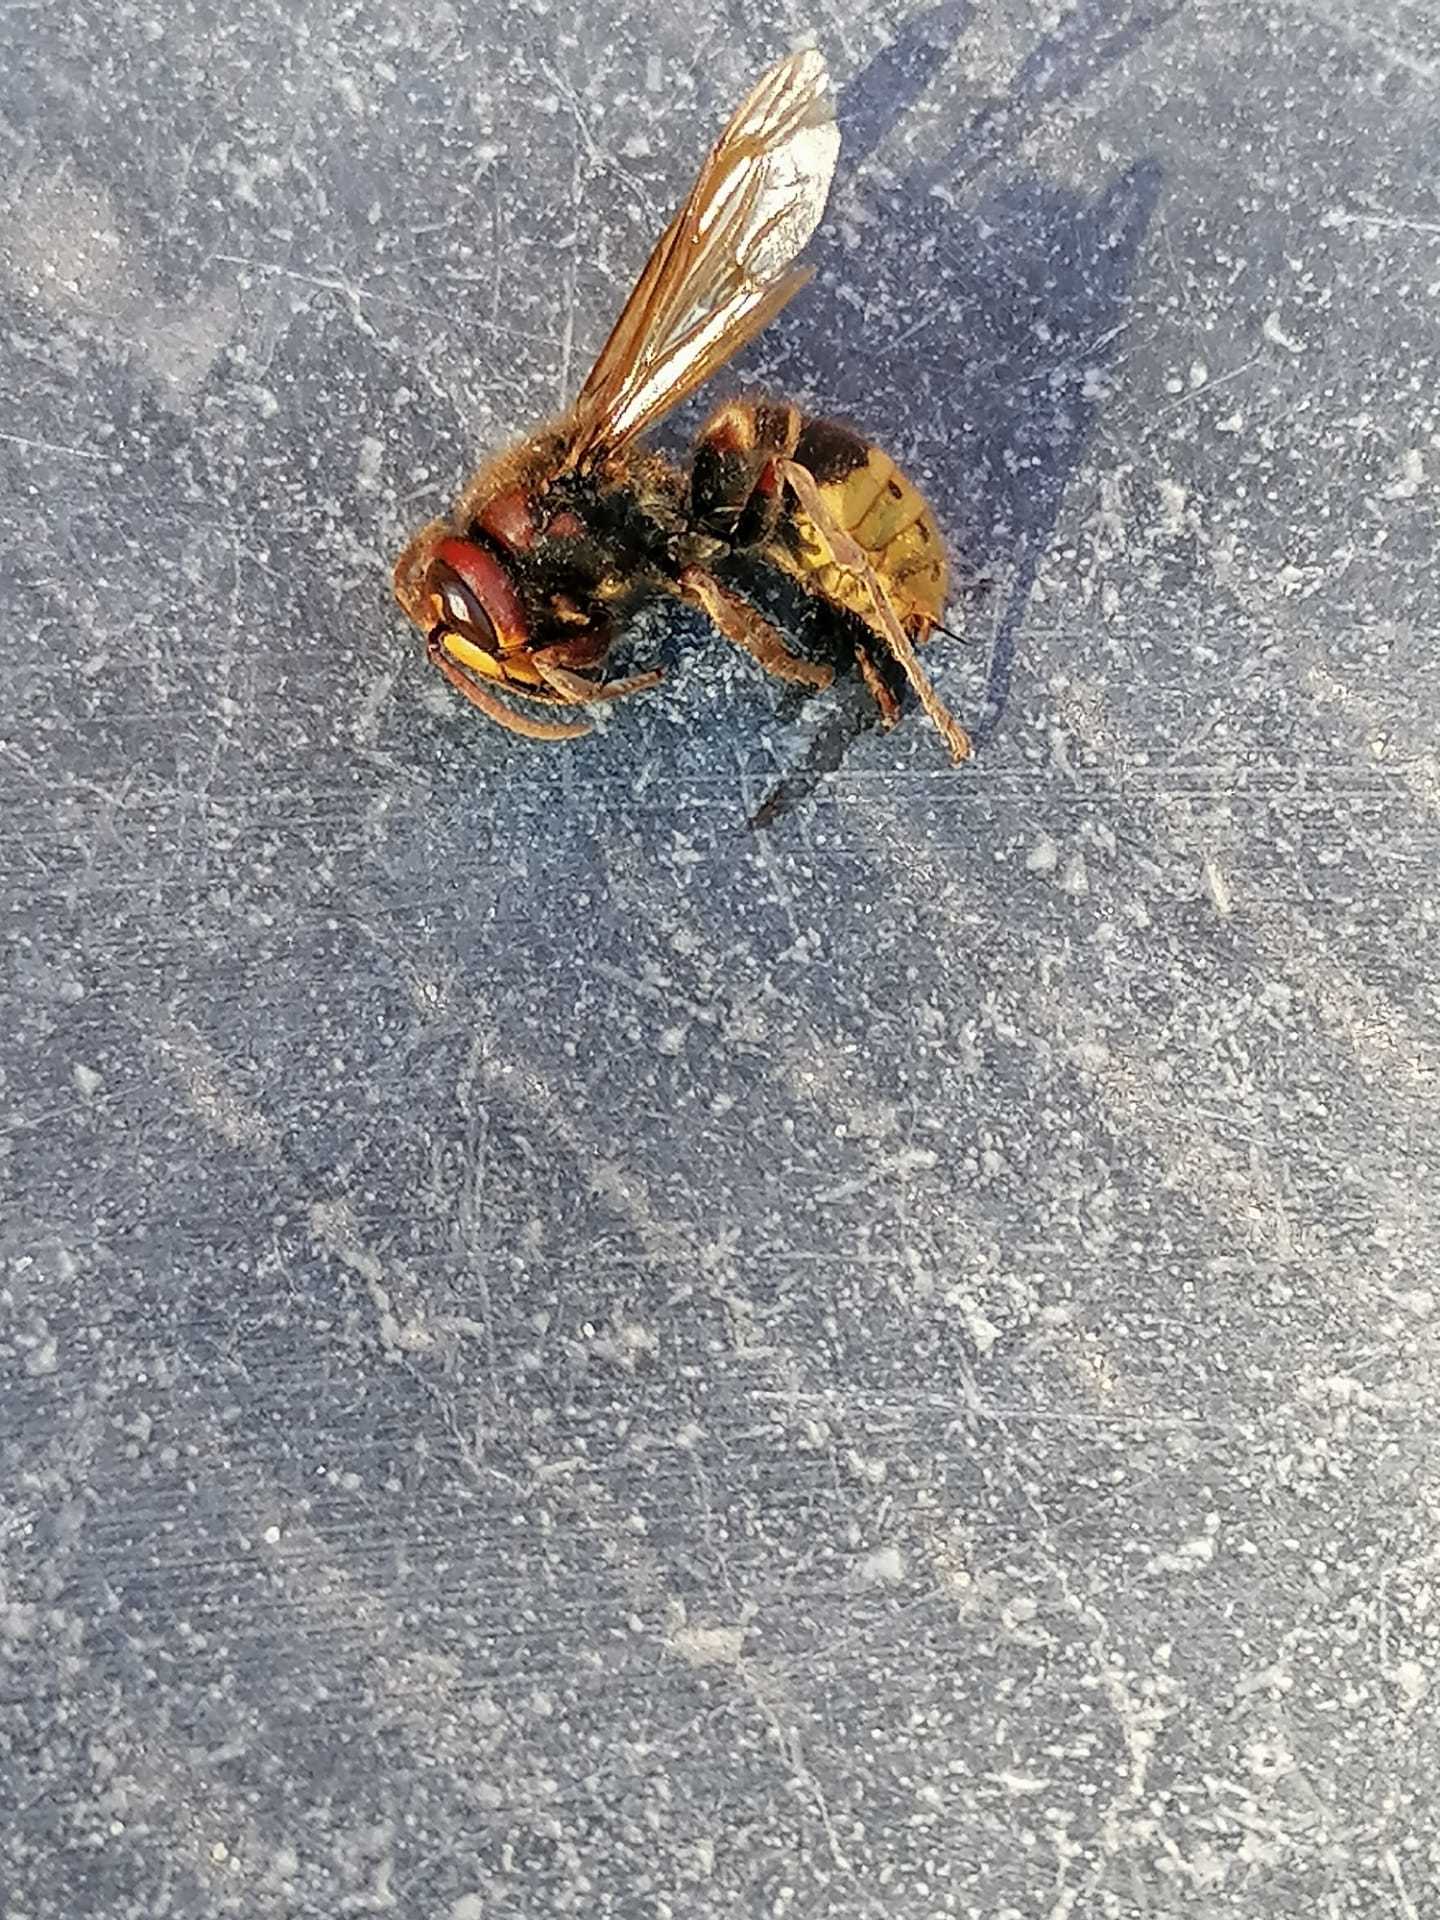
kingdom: Animalia
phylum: Arthropoda
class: Insecta
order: Hymenoptera
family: Vespidae
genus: Vespa
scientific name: Vespa crabro
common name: Hornet
